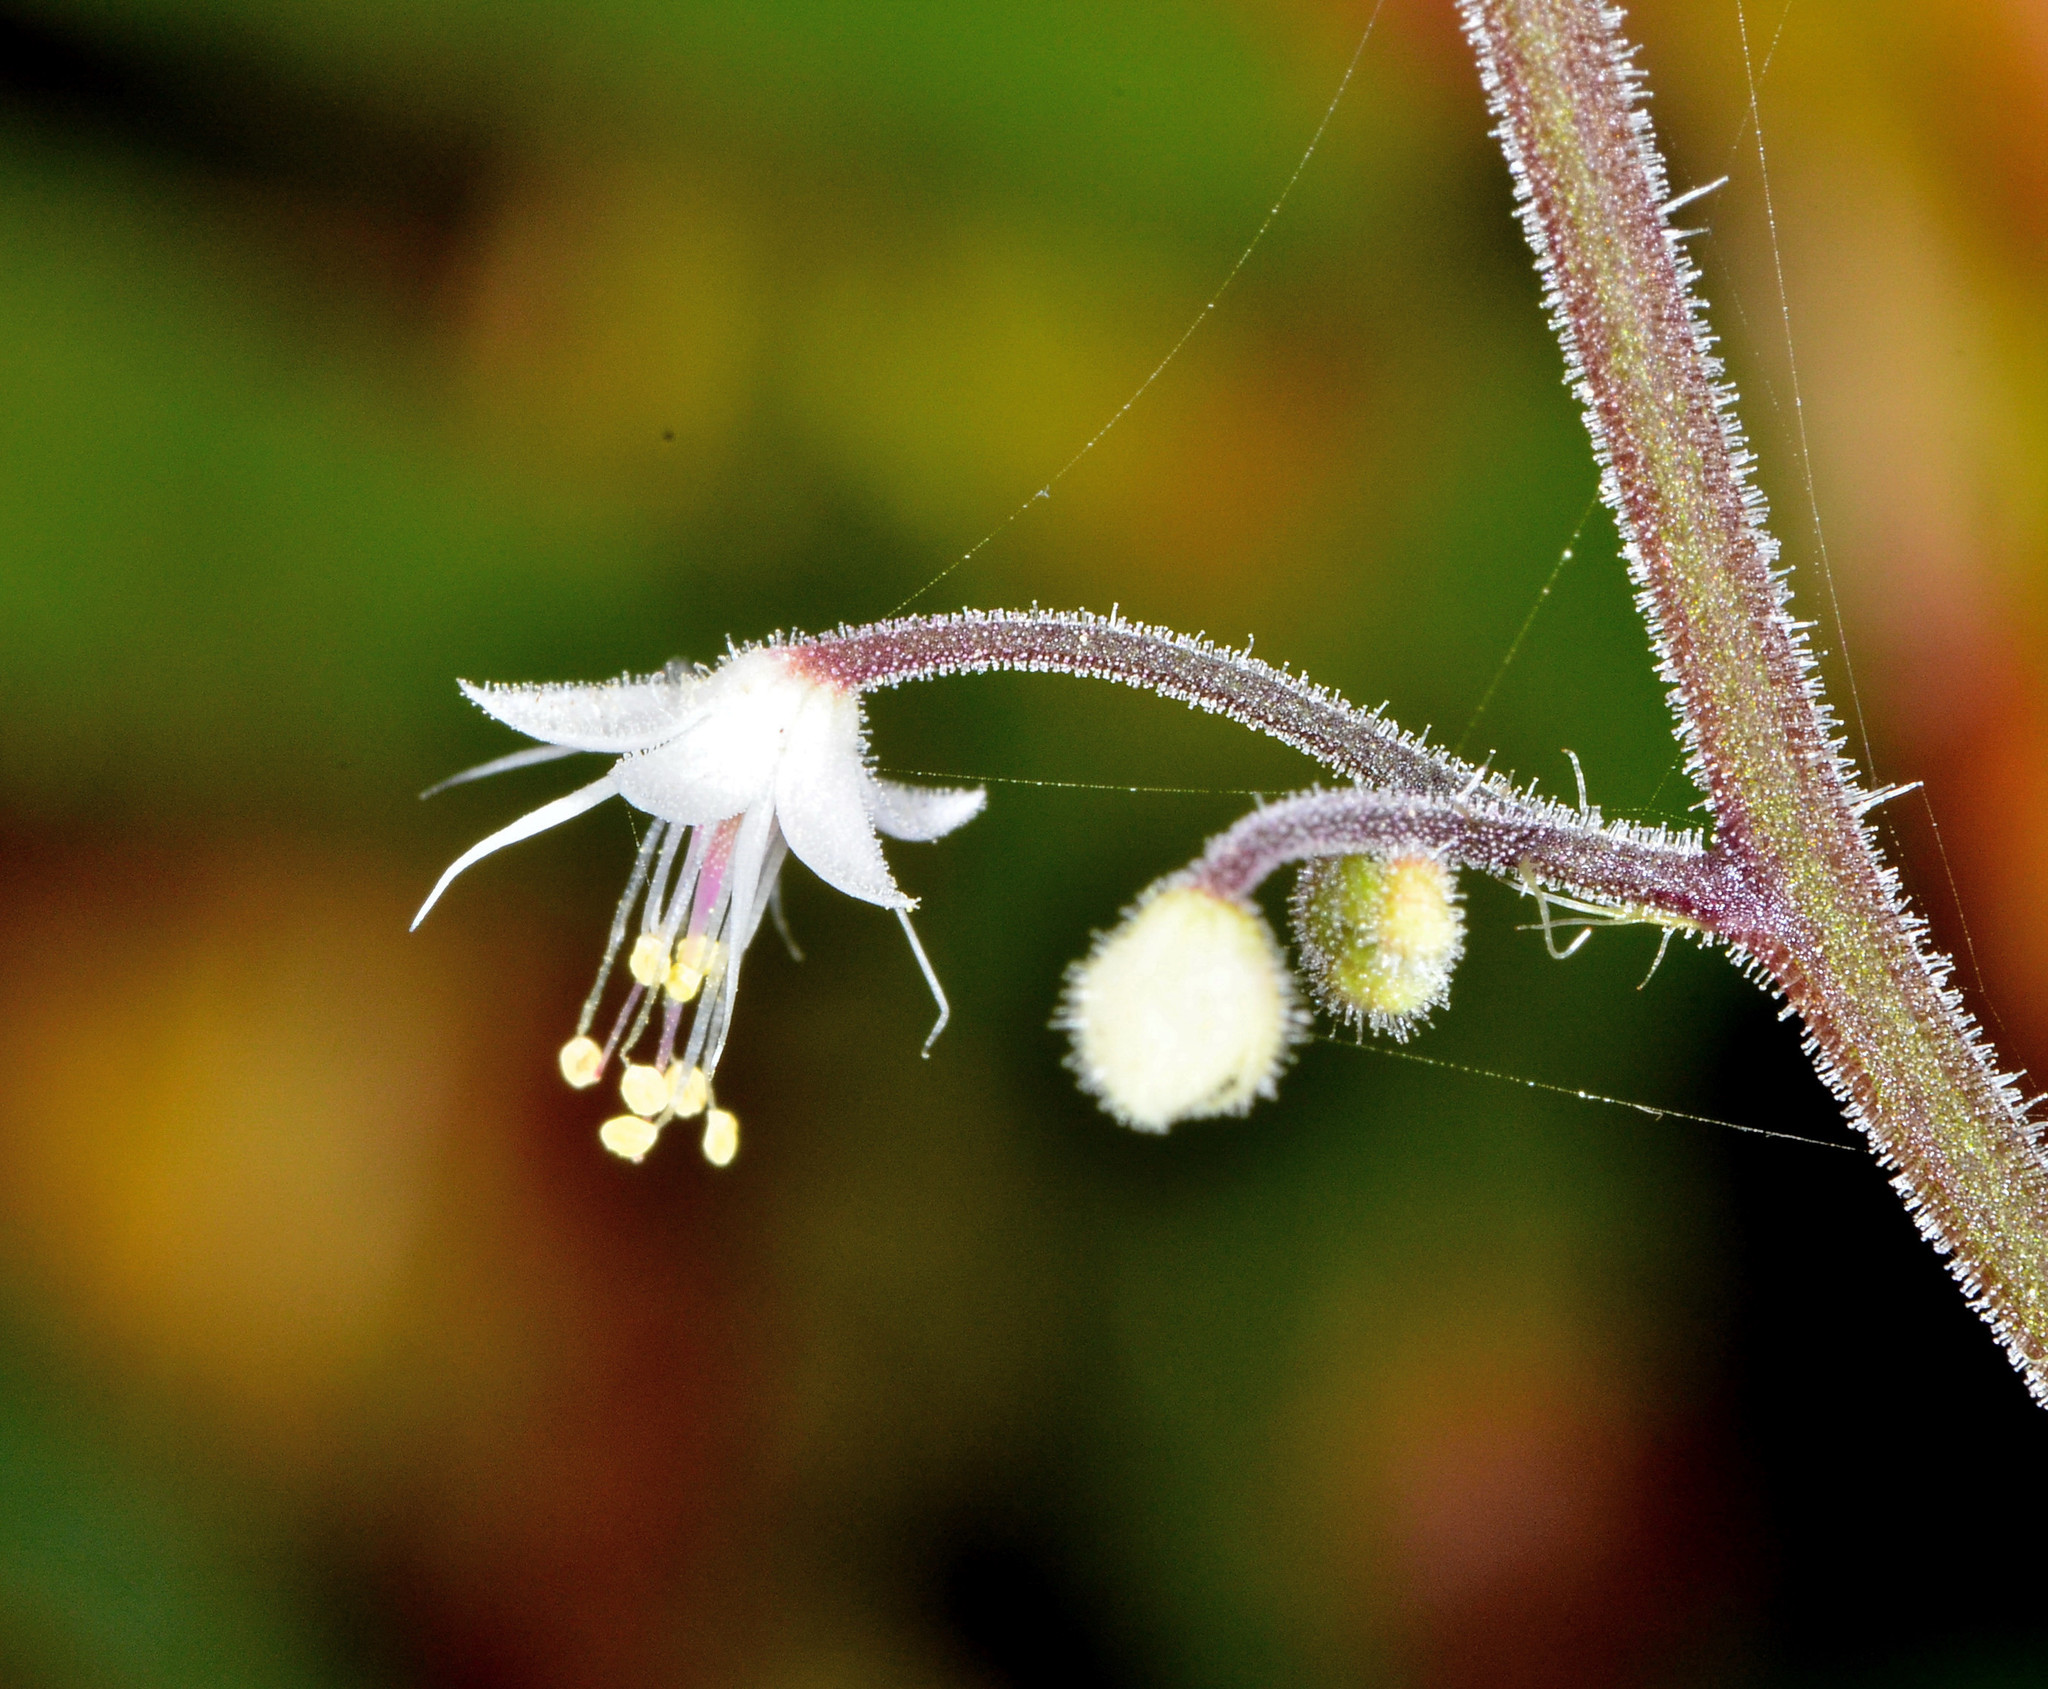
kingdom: Plantae
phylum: Tracheophyta
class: Magnoliopsida
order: Saxifragales
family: Saxifragaceae
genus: Tiarella
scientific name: Tiarella trifoliata
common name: Sugar-scoop
